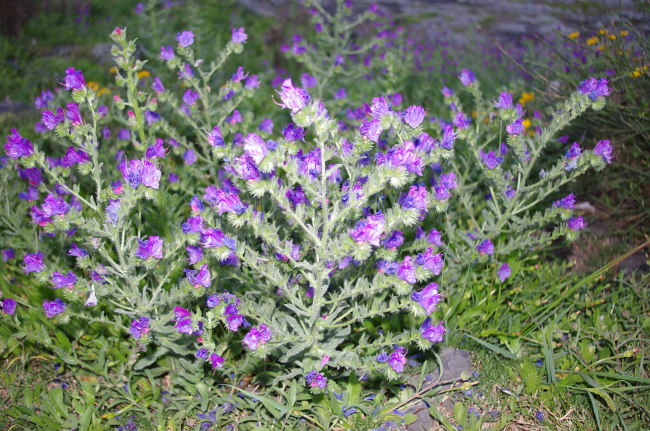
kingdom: Plantae
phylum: Tracheophyta
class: Magnoliopsida
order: Boraginales
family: Boraginaceae
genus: Echium
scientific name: Echium plantagineum
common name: Purple viper's-bugloss
